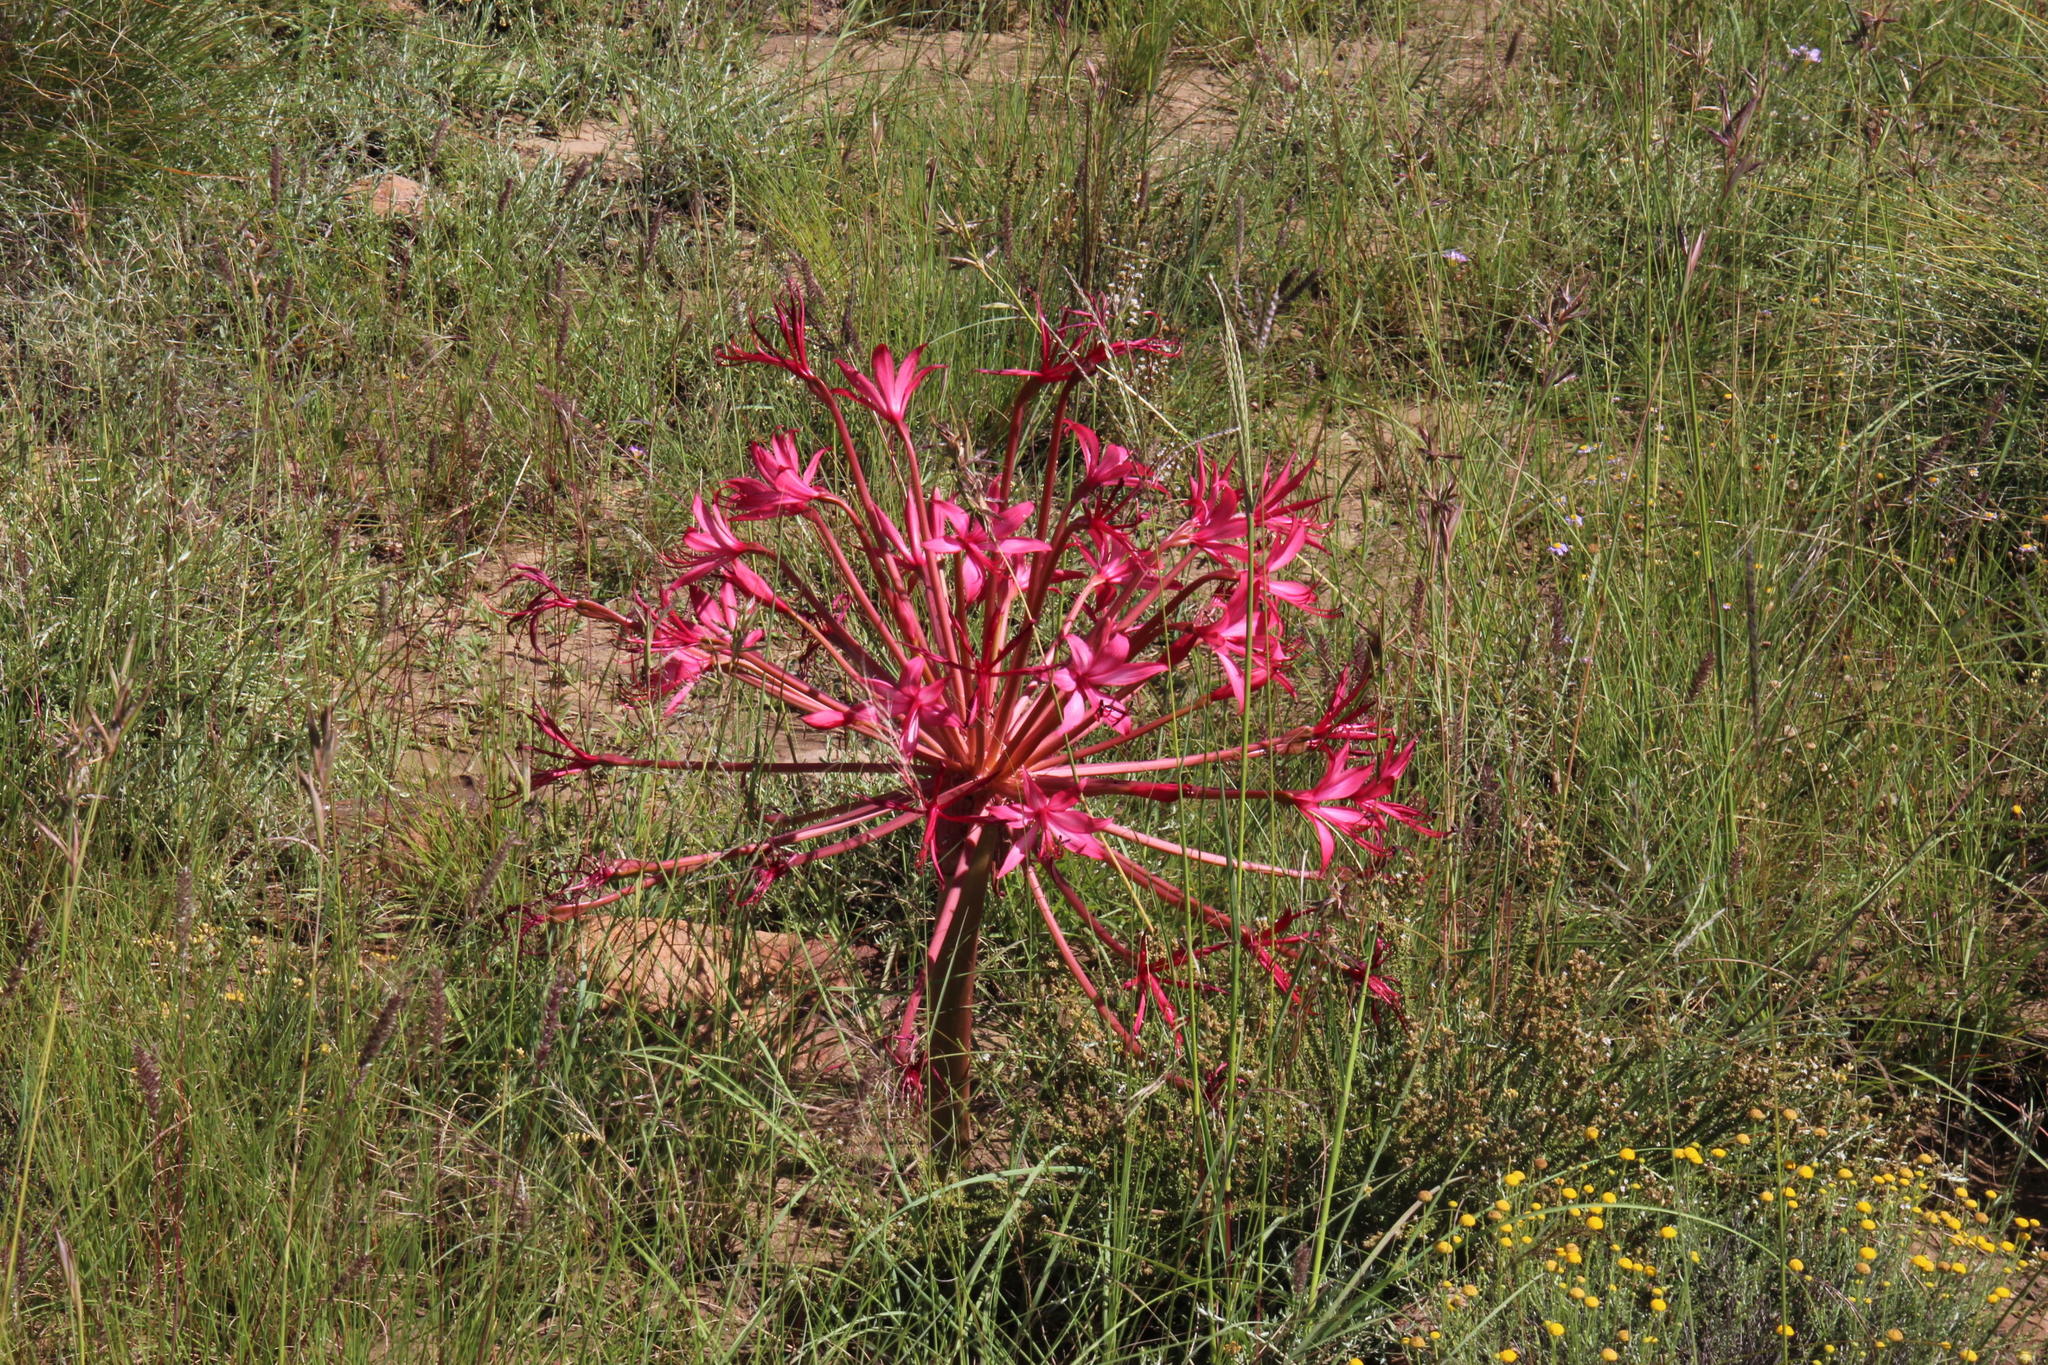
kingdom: Plantae
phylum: Tracheophyta
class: Liliopsida
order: Asparagales
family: Amaryllidaceae
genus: Brunsvigia
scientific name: Brunsvigia radulosa
